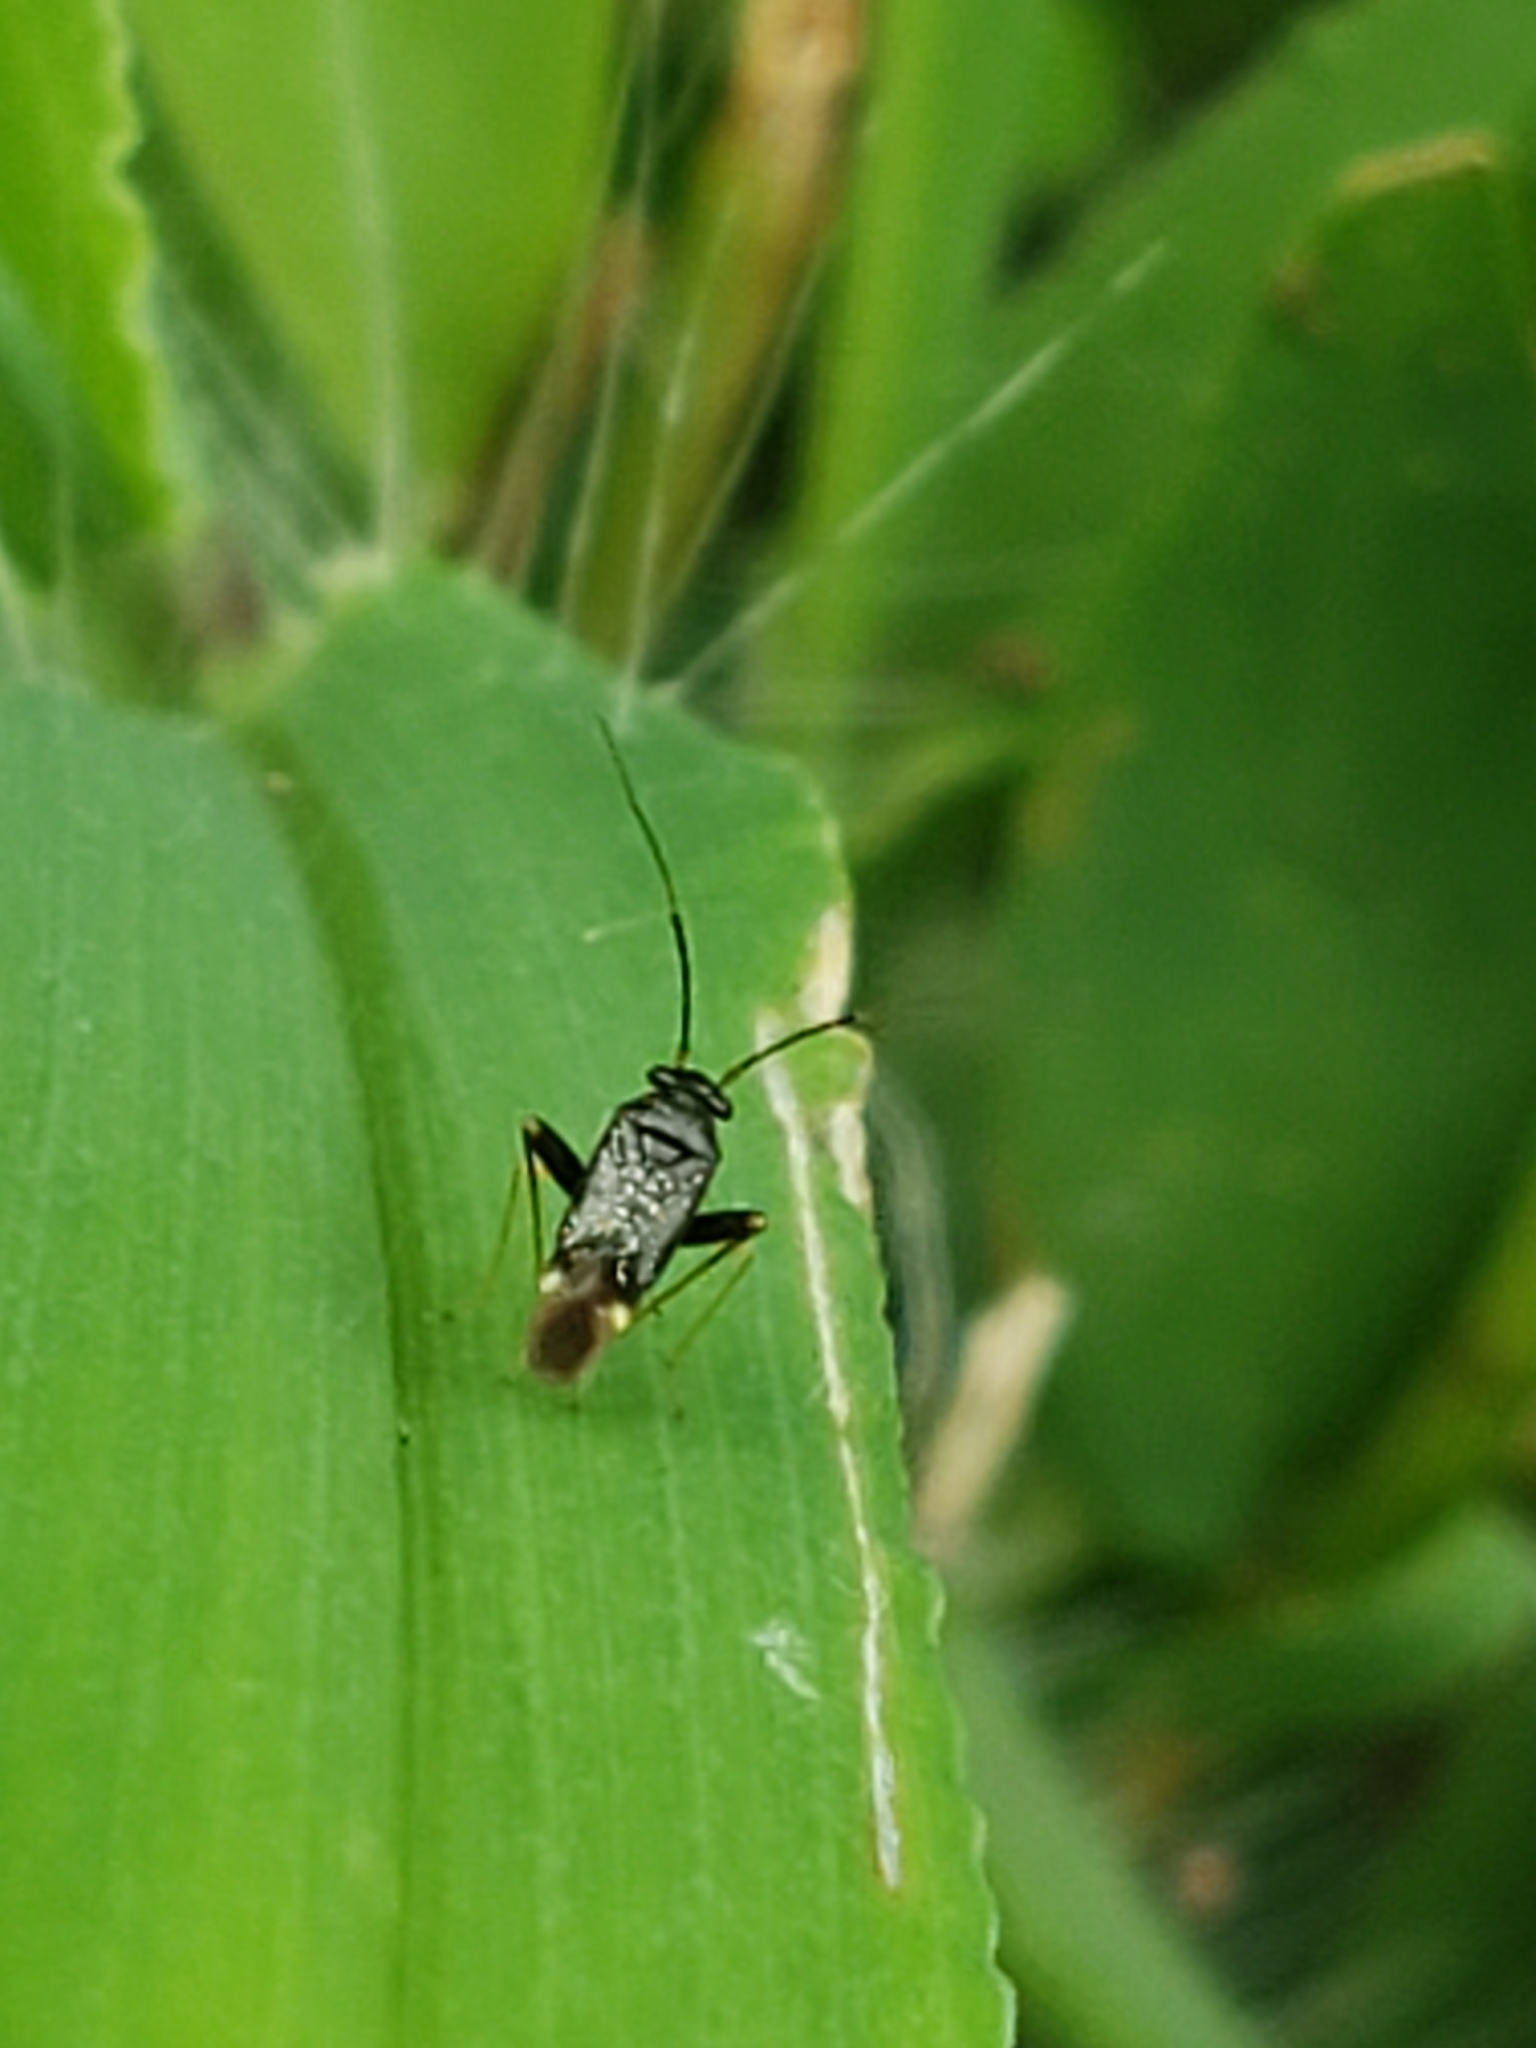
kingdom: Animalia
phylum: Arthropoda
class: Insecta
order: Hemiptera
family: Miridae
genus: Microtechnites
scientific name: Microtechnites bractatus
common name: Garden fleahopper
